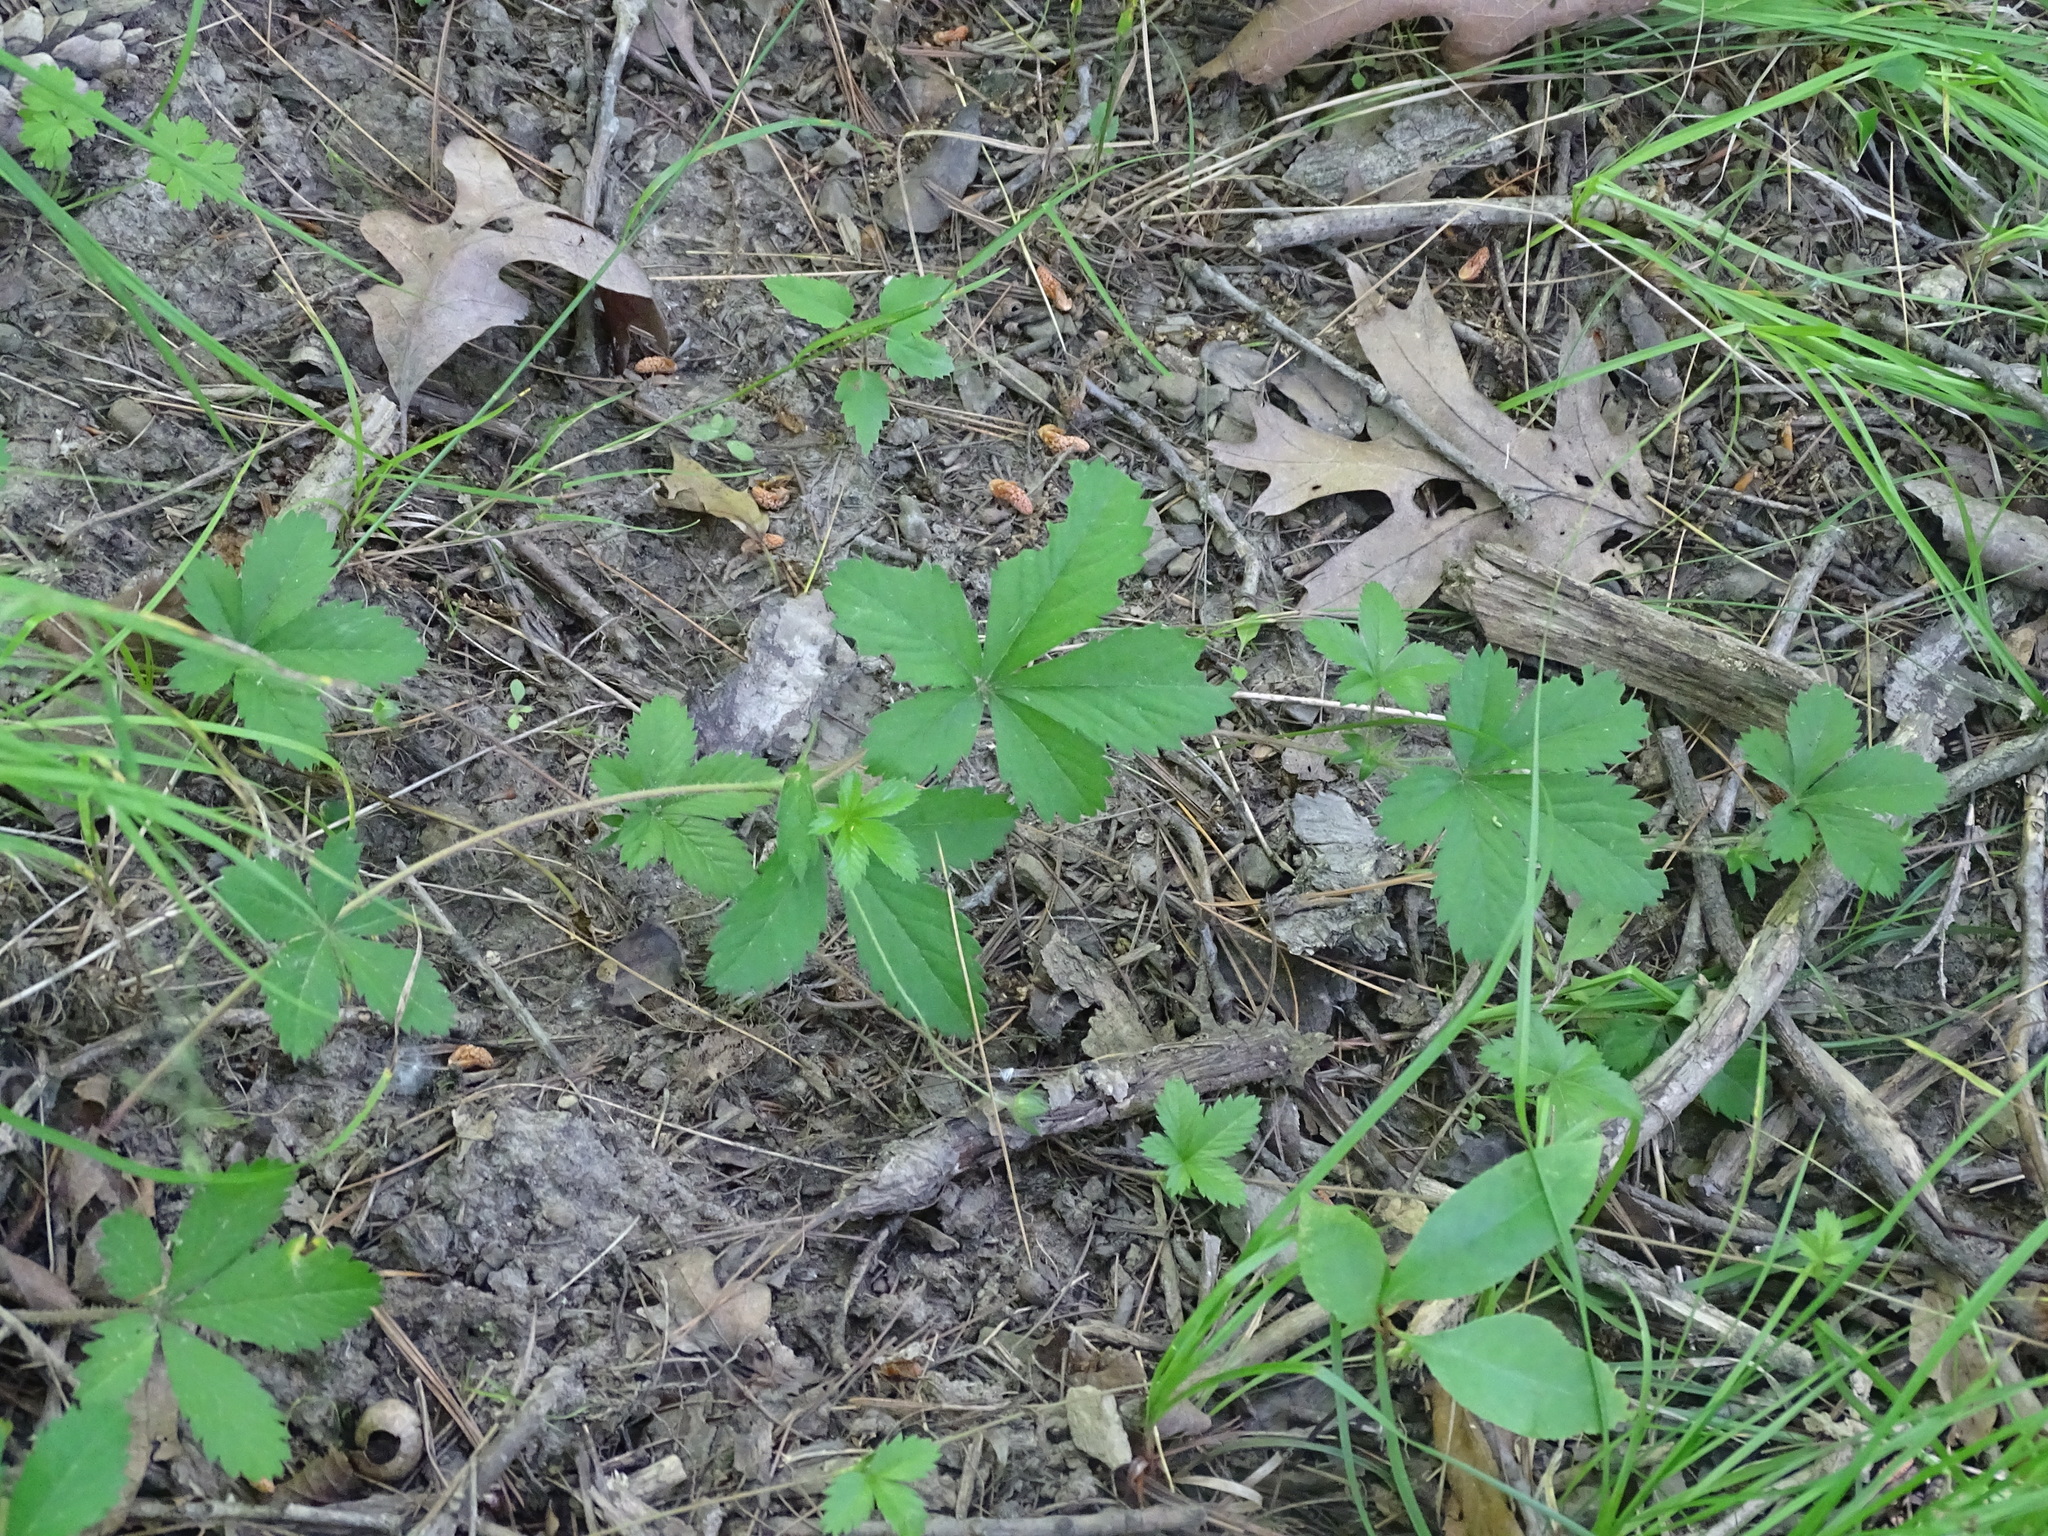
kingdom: Plantae
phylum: Tracheophyta
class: Magnoliopsida
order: Rosales
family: Rosaceae
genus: Potentilla
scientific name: Potentilla simplex
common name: Old field cinquefoil
